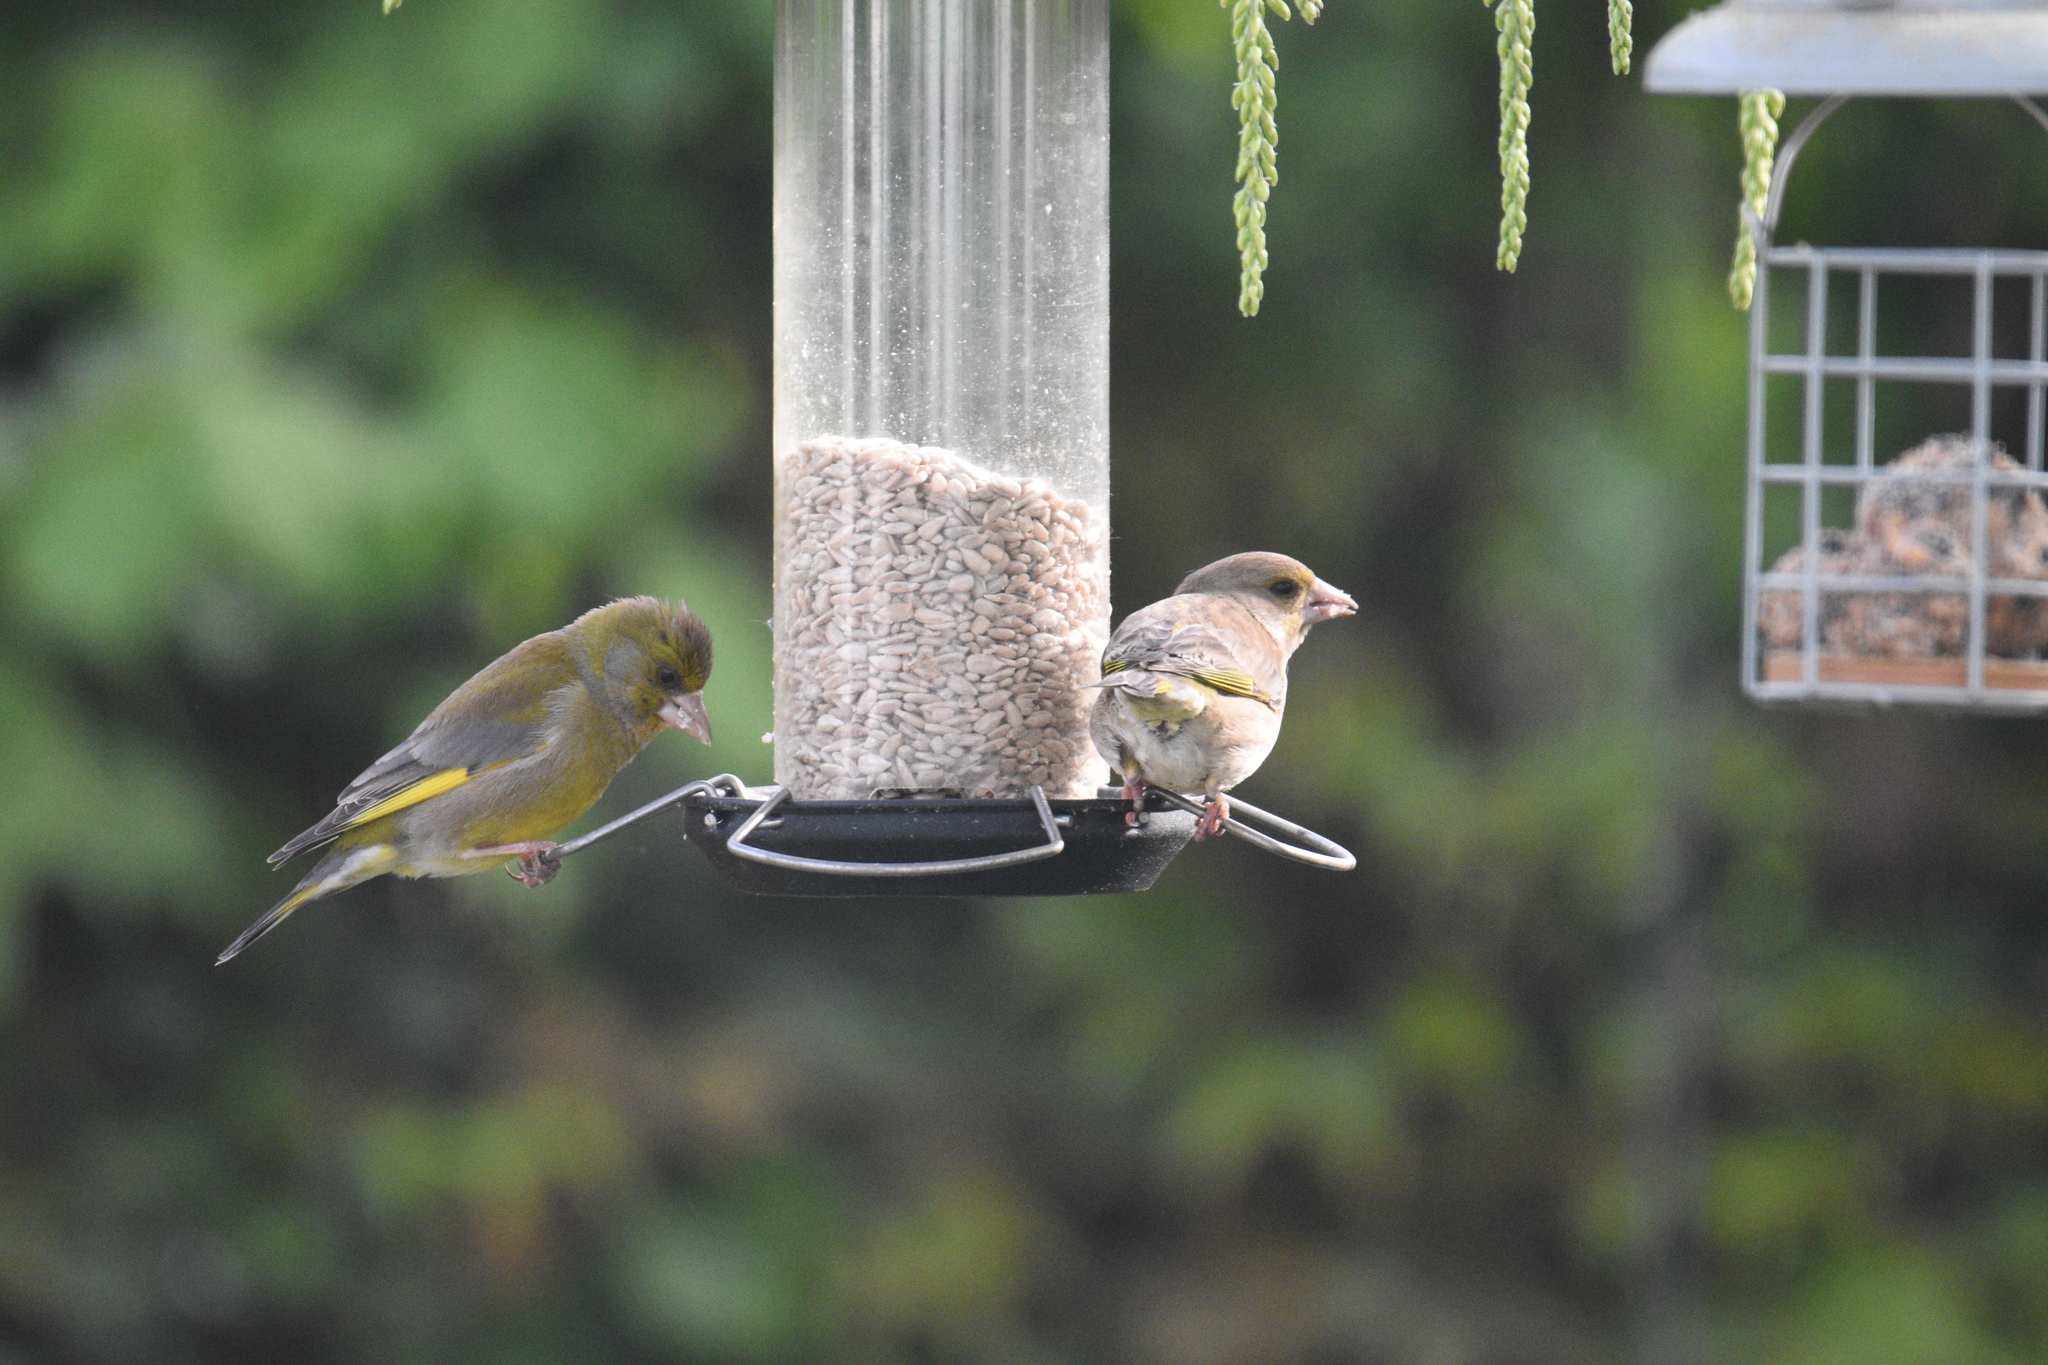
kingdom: Plantae
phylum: Tracheophyta
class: Liliopsida
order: Poales
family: Poaceae
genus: Chloris
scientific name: Chloris chloris
